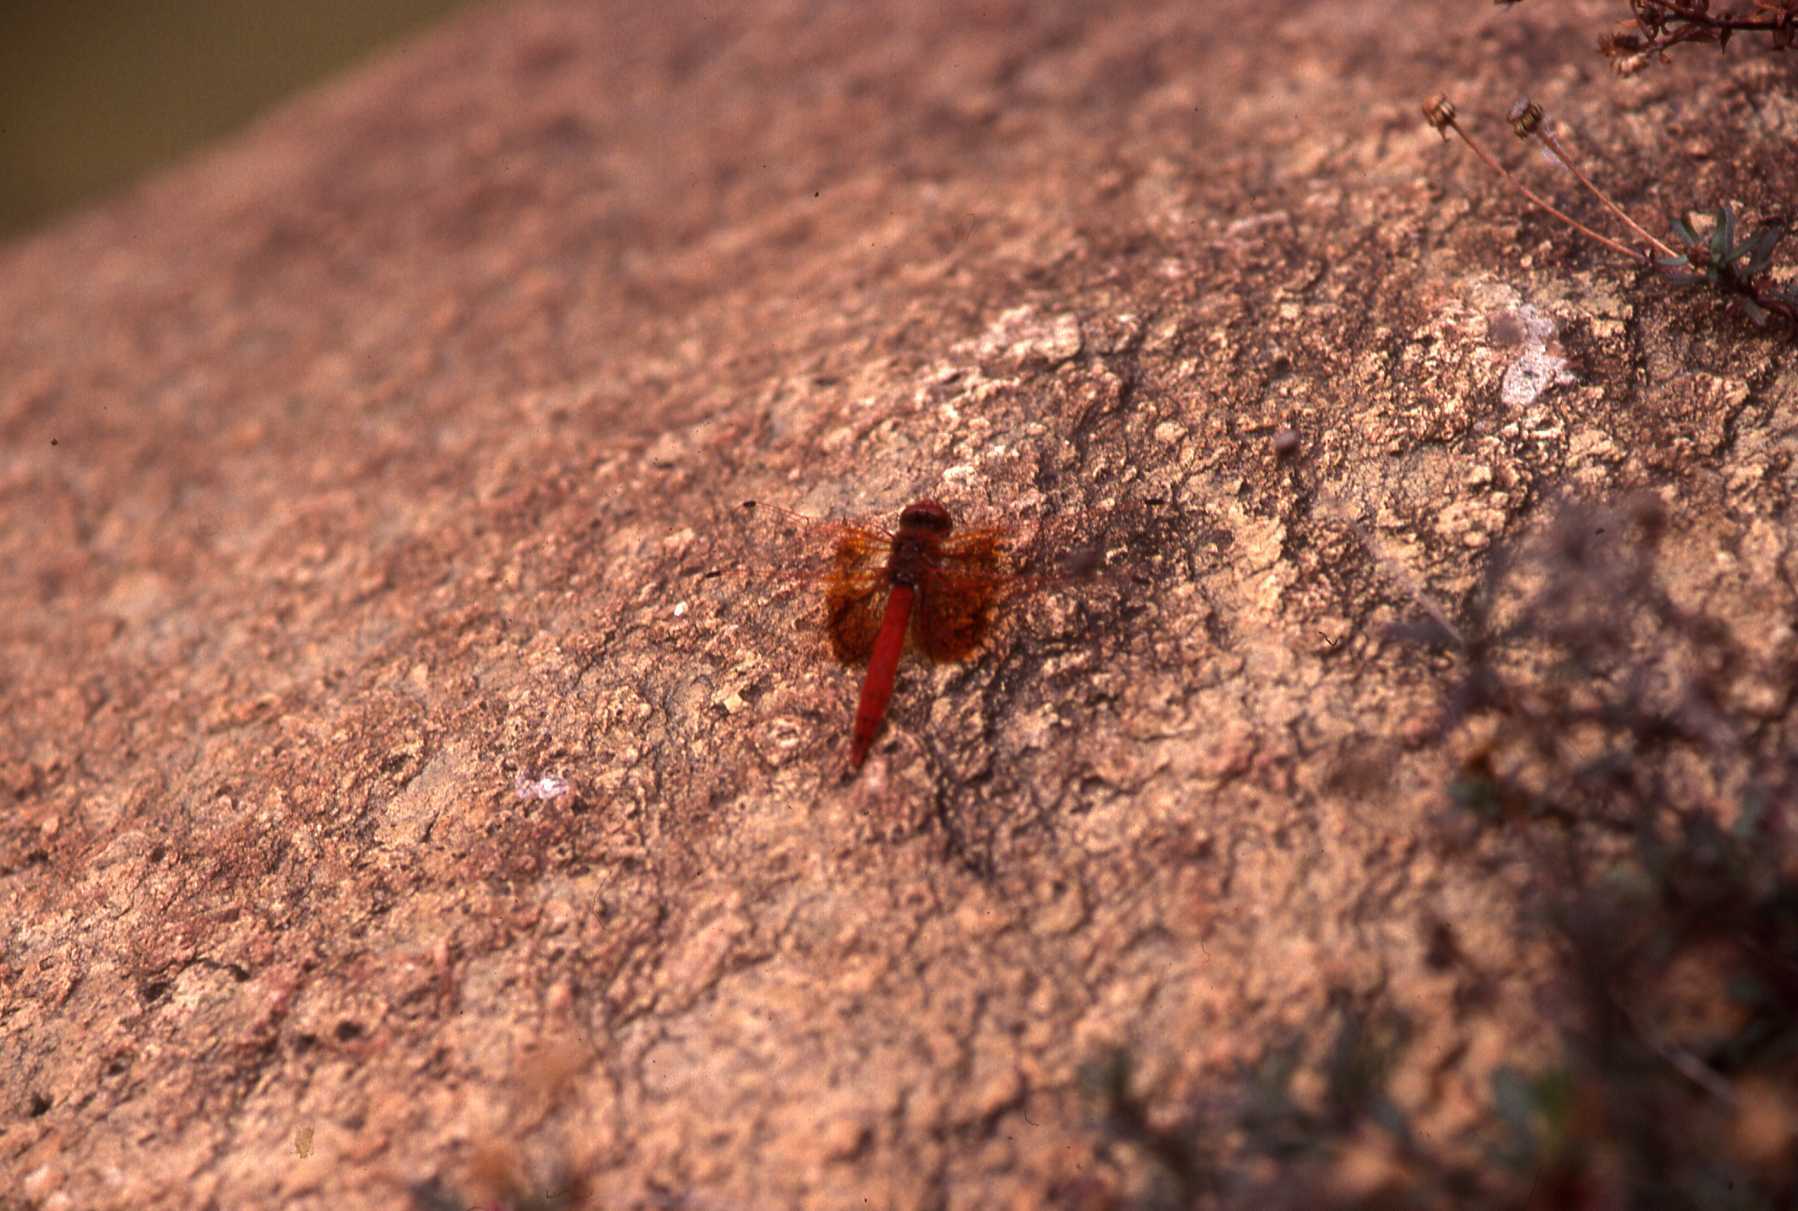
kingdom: Animalia
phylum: Arthropoda
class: Insecta
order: Odonata
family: Libellulidae
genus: Trithemis
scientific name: Trithemis kirbyi
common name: Kirby's dropwing
